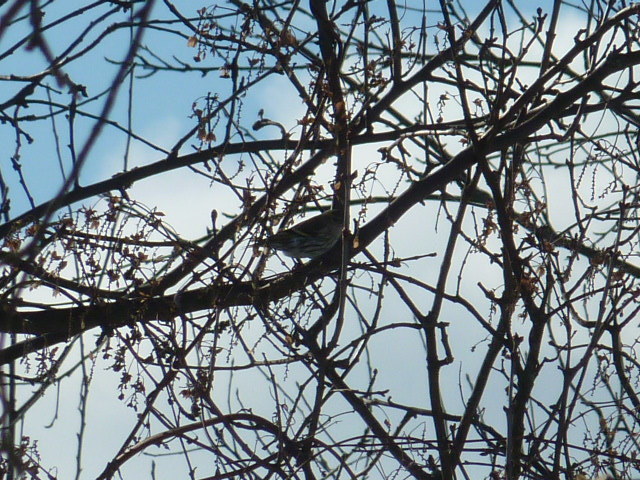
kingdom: Animalia
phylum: Chordata
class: Aves
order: Passeriformes
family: Fringillidae
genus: Spinus
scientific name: Spinus spinus
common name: Eurasian siskin
